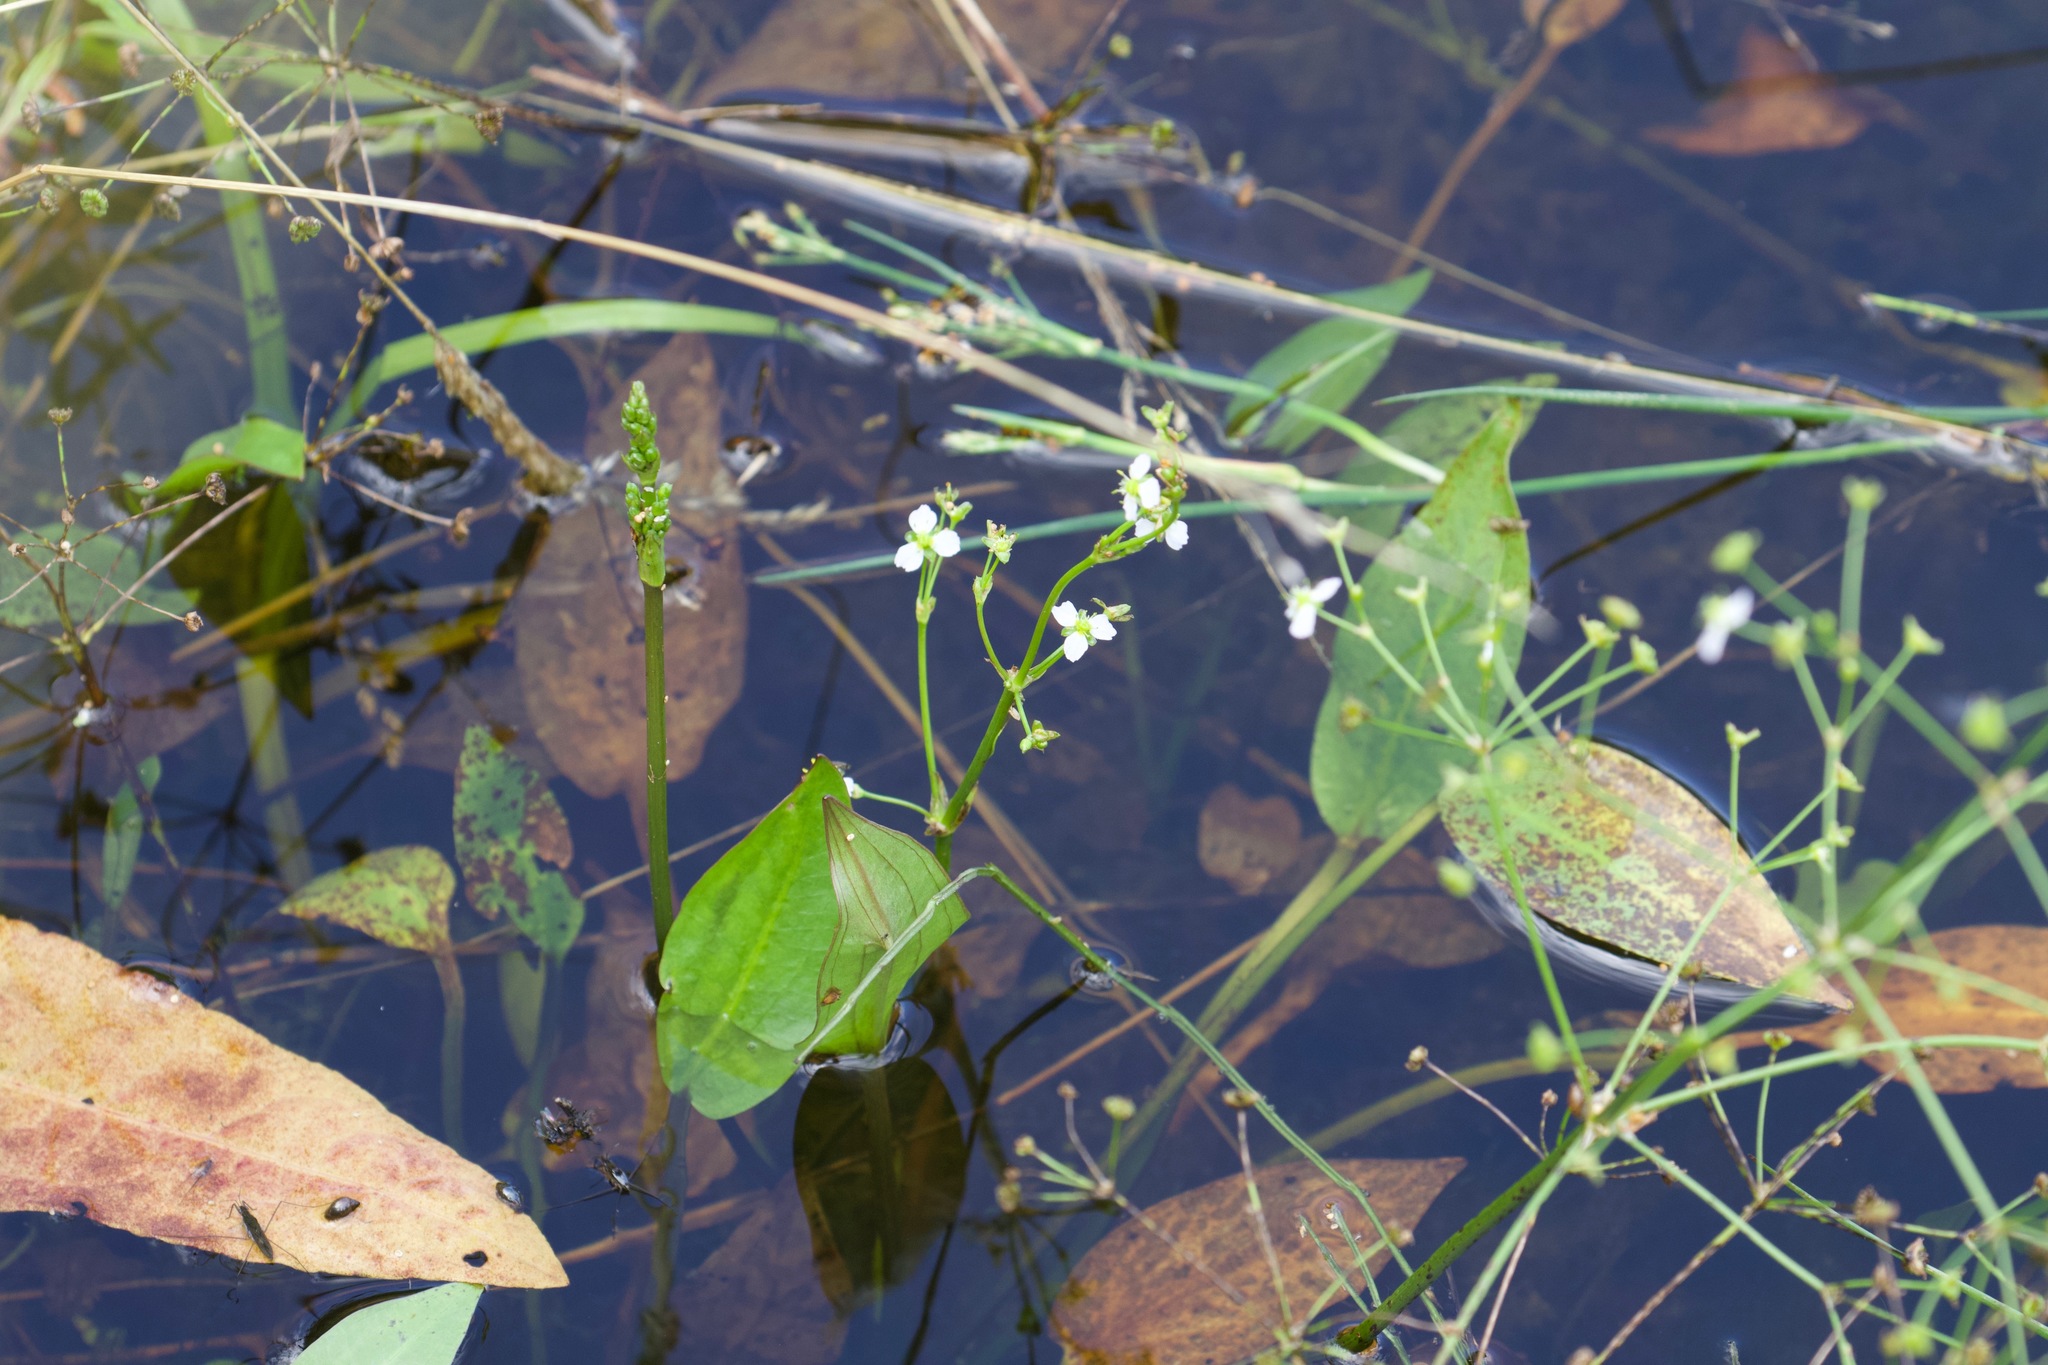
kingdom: Plantae
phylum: Tracheophyta
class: Liliopsida
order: Alismatales
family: Alismataceae
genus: Alisma
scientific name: Alisma plantago-aquatica
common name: Water-plantain
